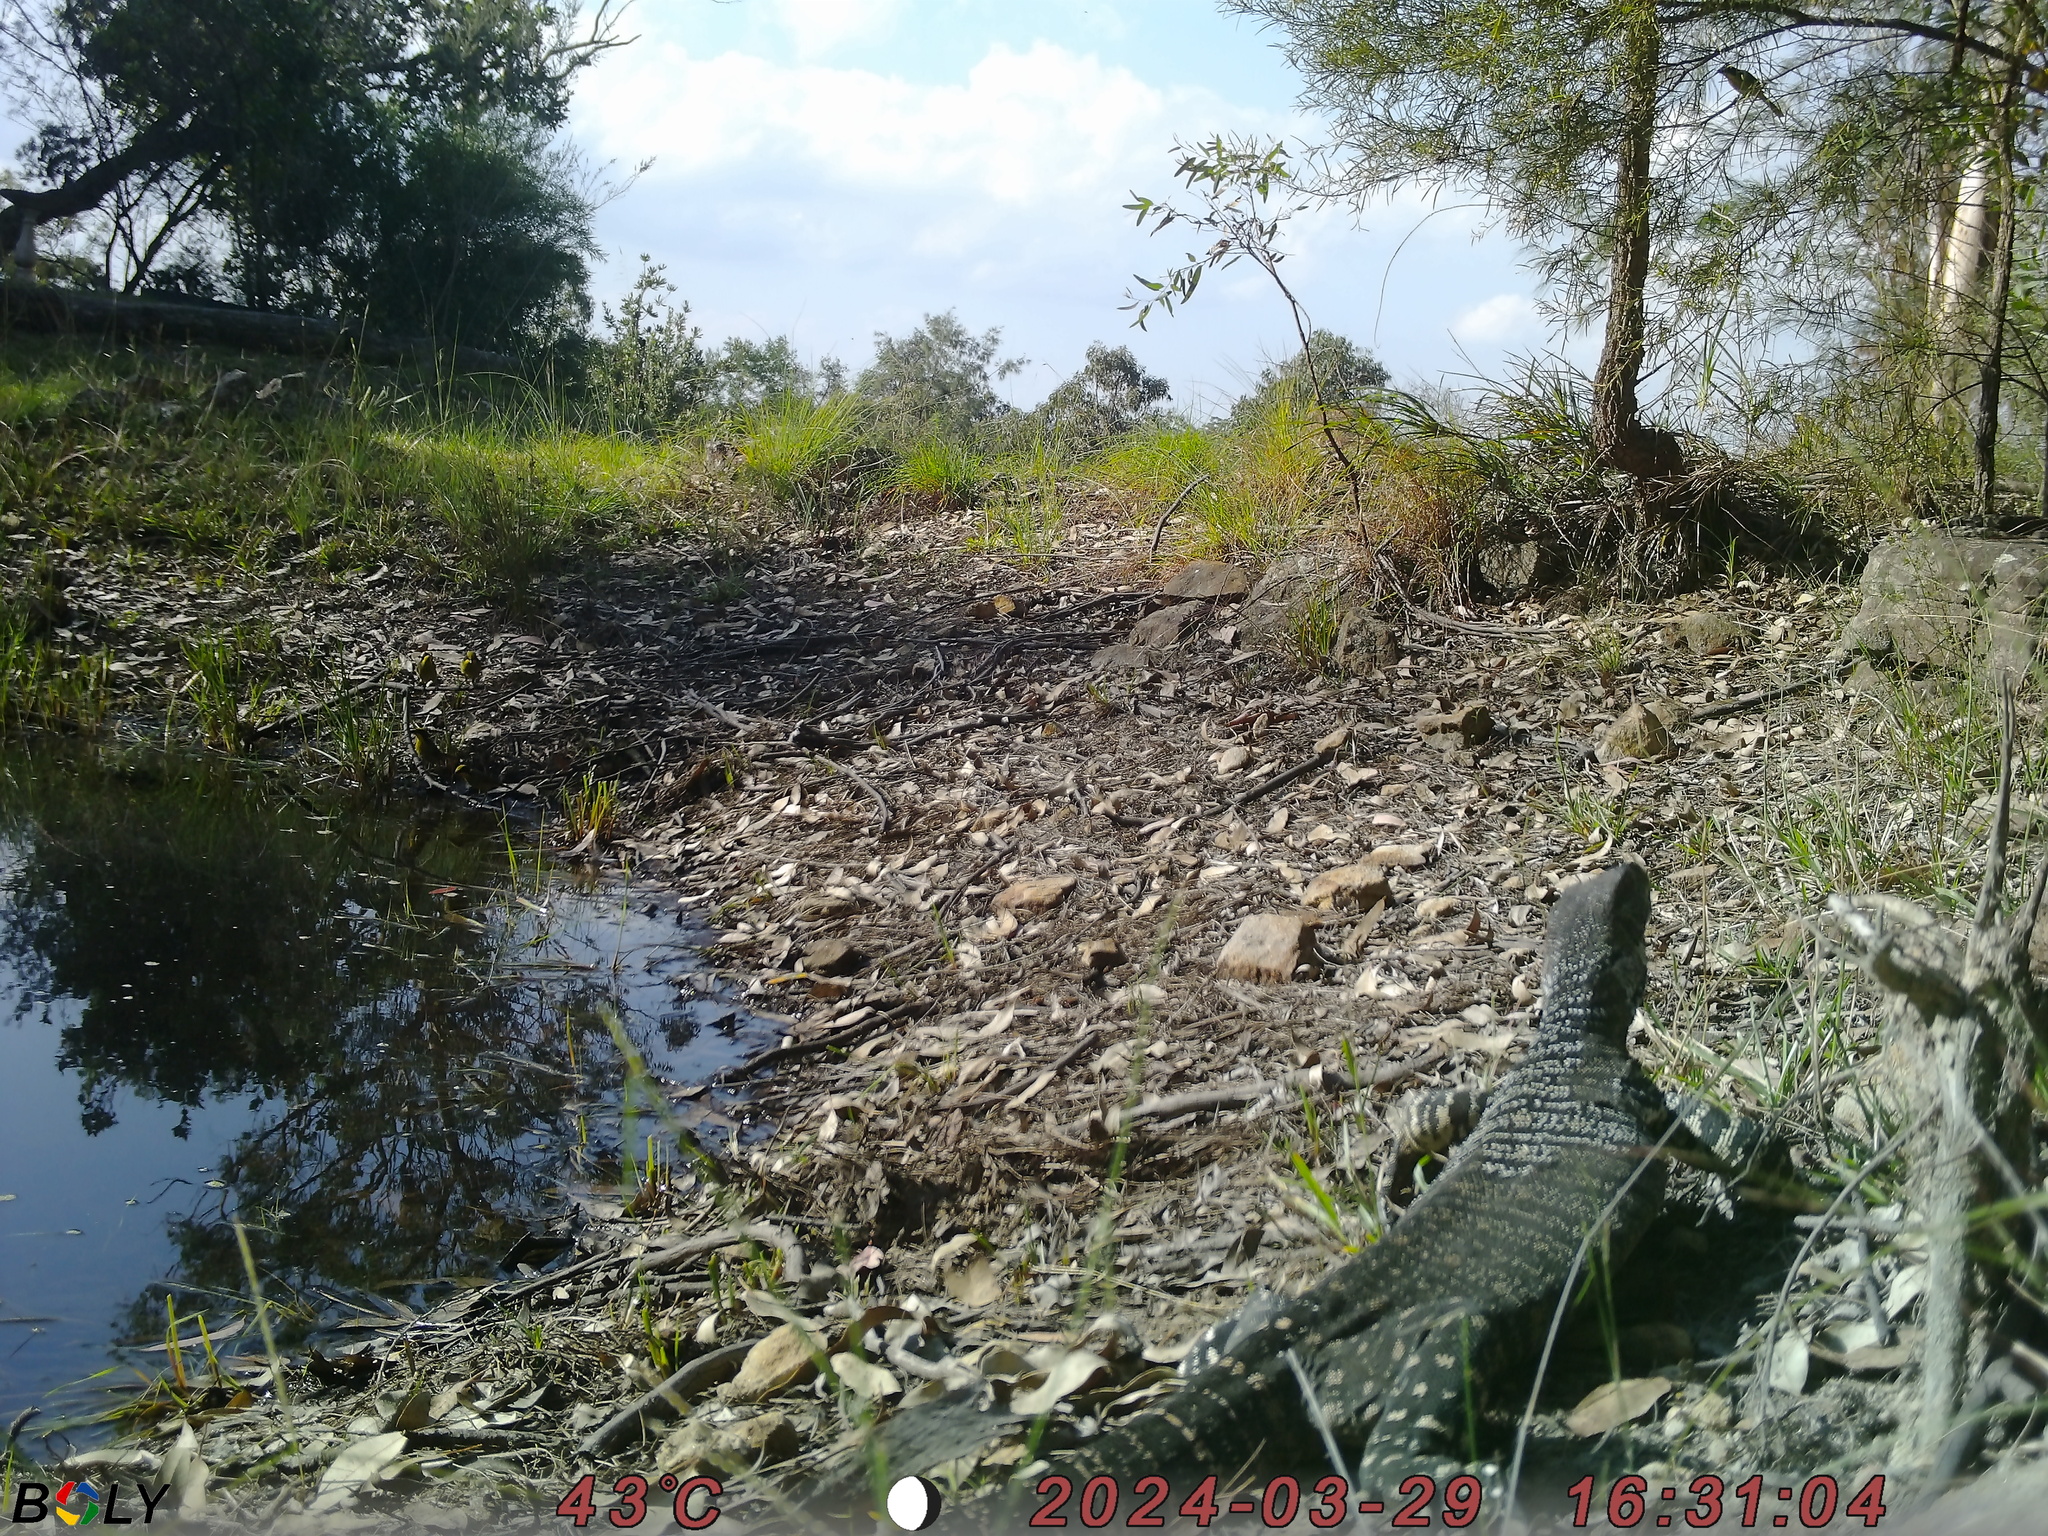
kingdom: Animalia
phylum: Chordata
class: Squamata
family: Varanidae
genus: Varanus
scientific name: Varanus varius
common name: Lace monitor
